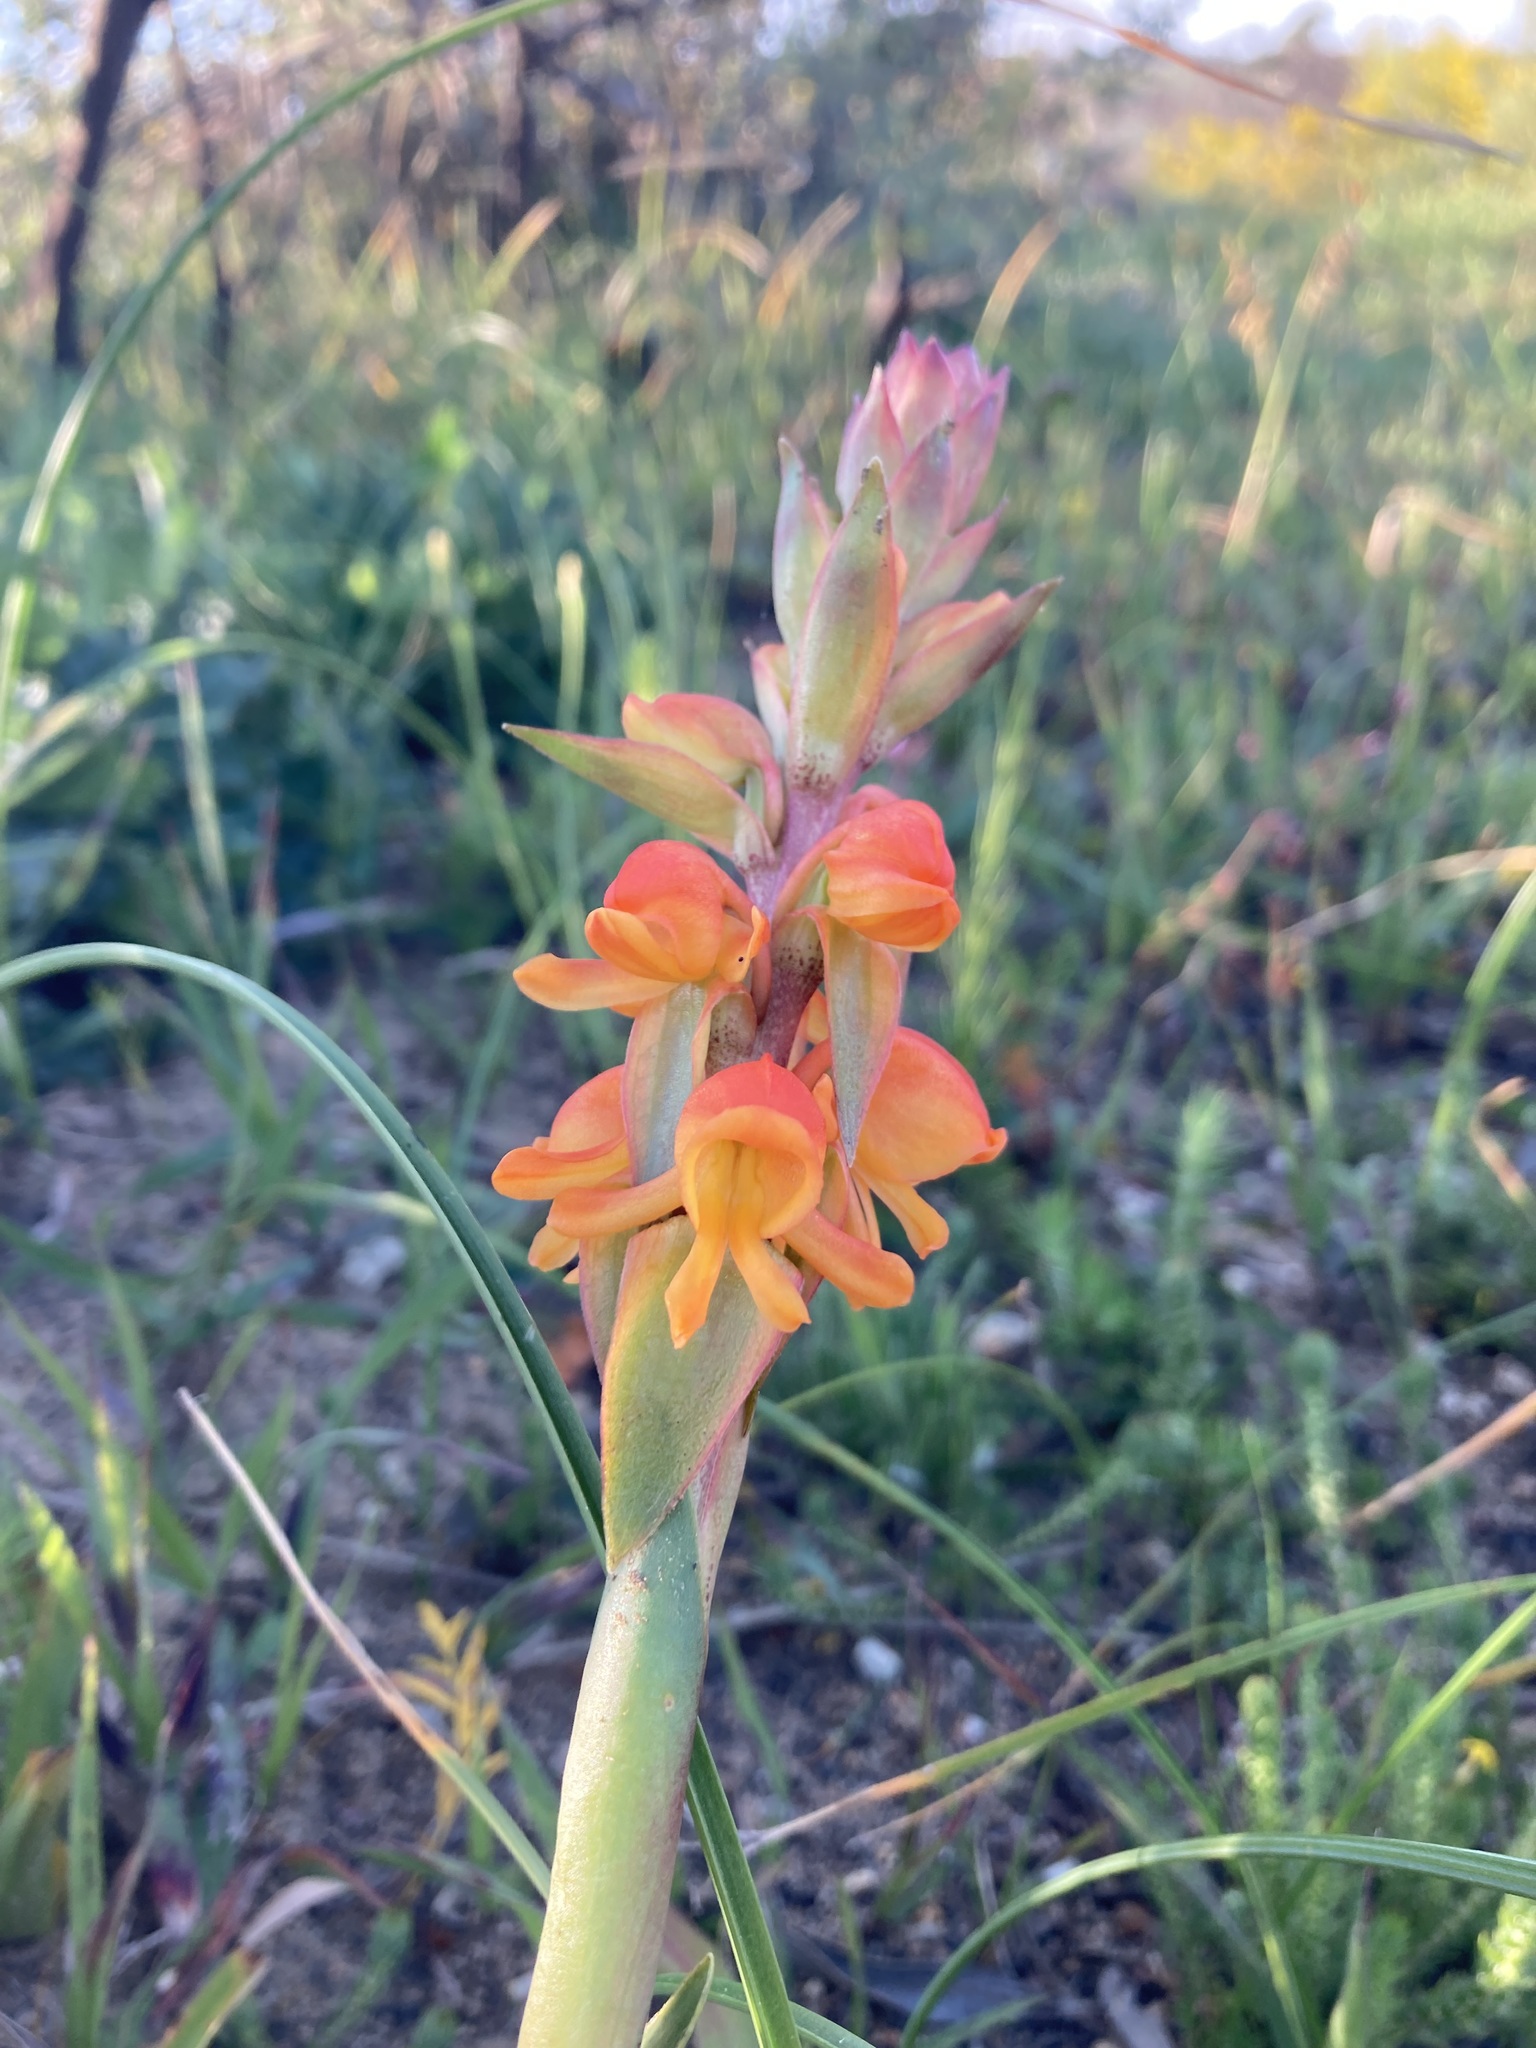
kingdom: Plantae
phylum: Tracheophyta
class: Liliopsida
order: Asparagales
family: Orchidaceae
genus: Satyrium
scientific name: Satyrium coriifolium
